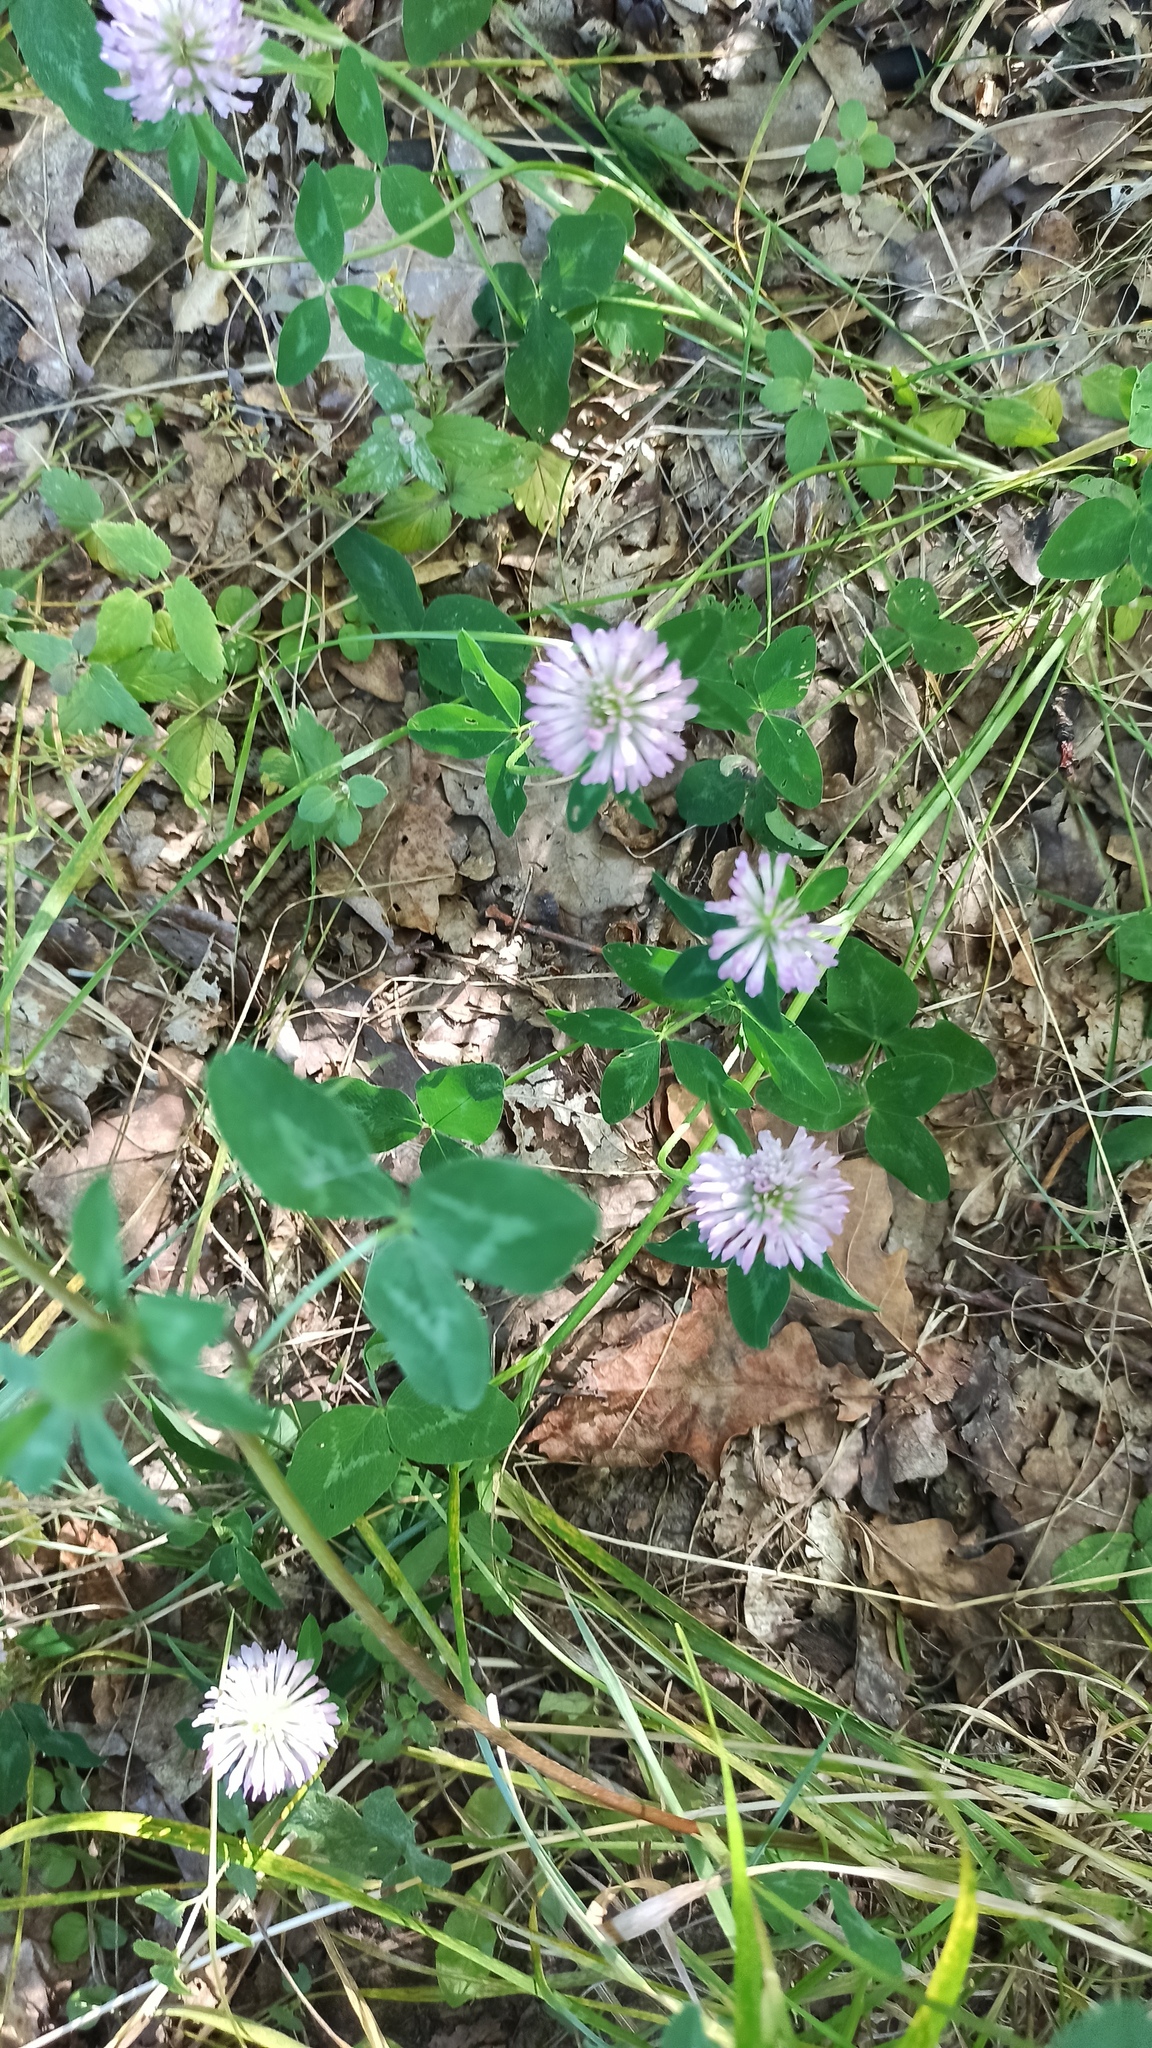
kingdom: Plantae
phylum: Tracheophyta
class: Magnoliopsida
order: Fabales
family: Fabaceae
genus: Trifolium
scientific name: Trifolium pratense
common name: Red clover
